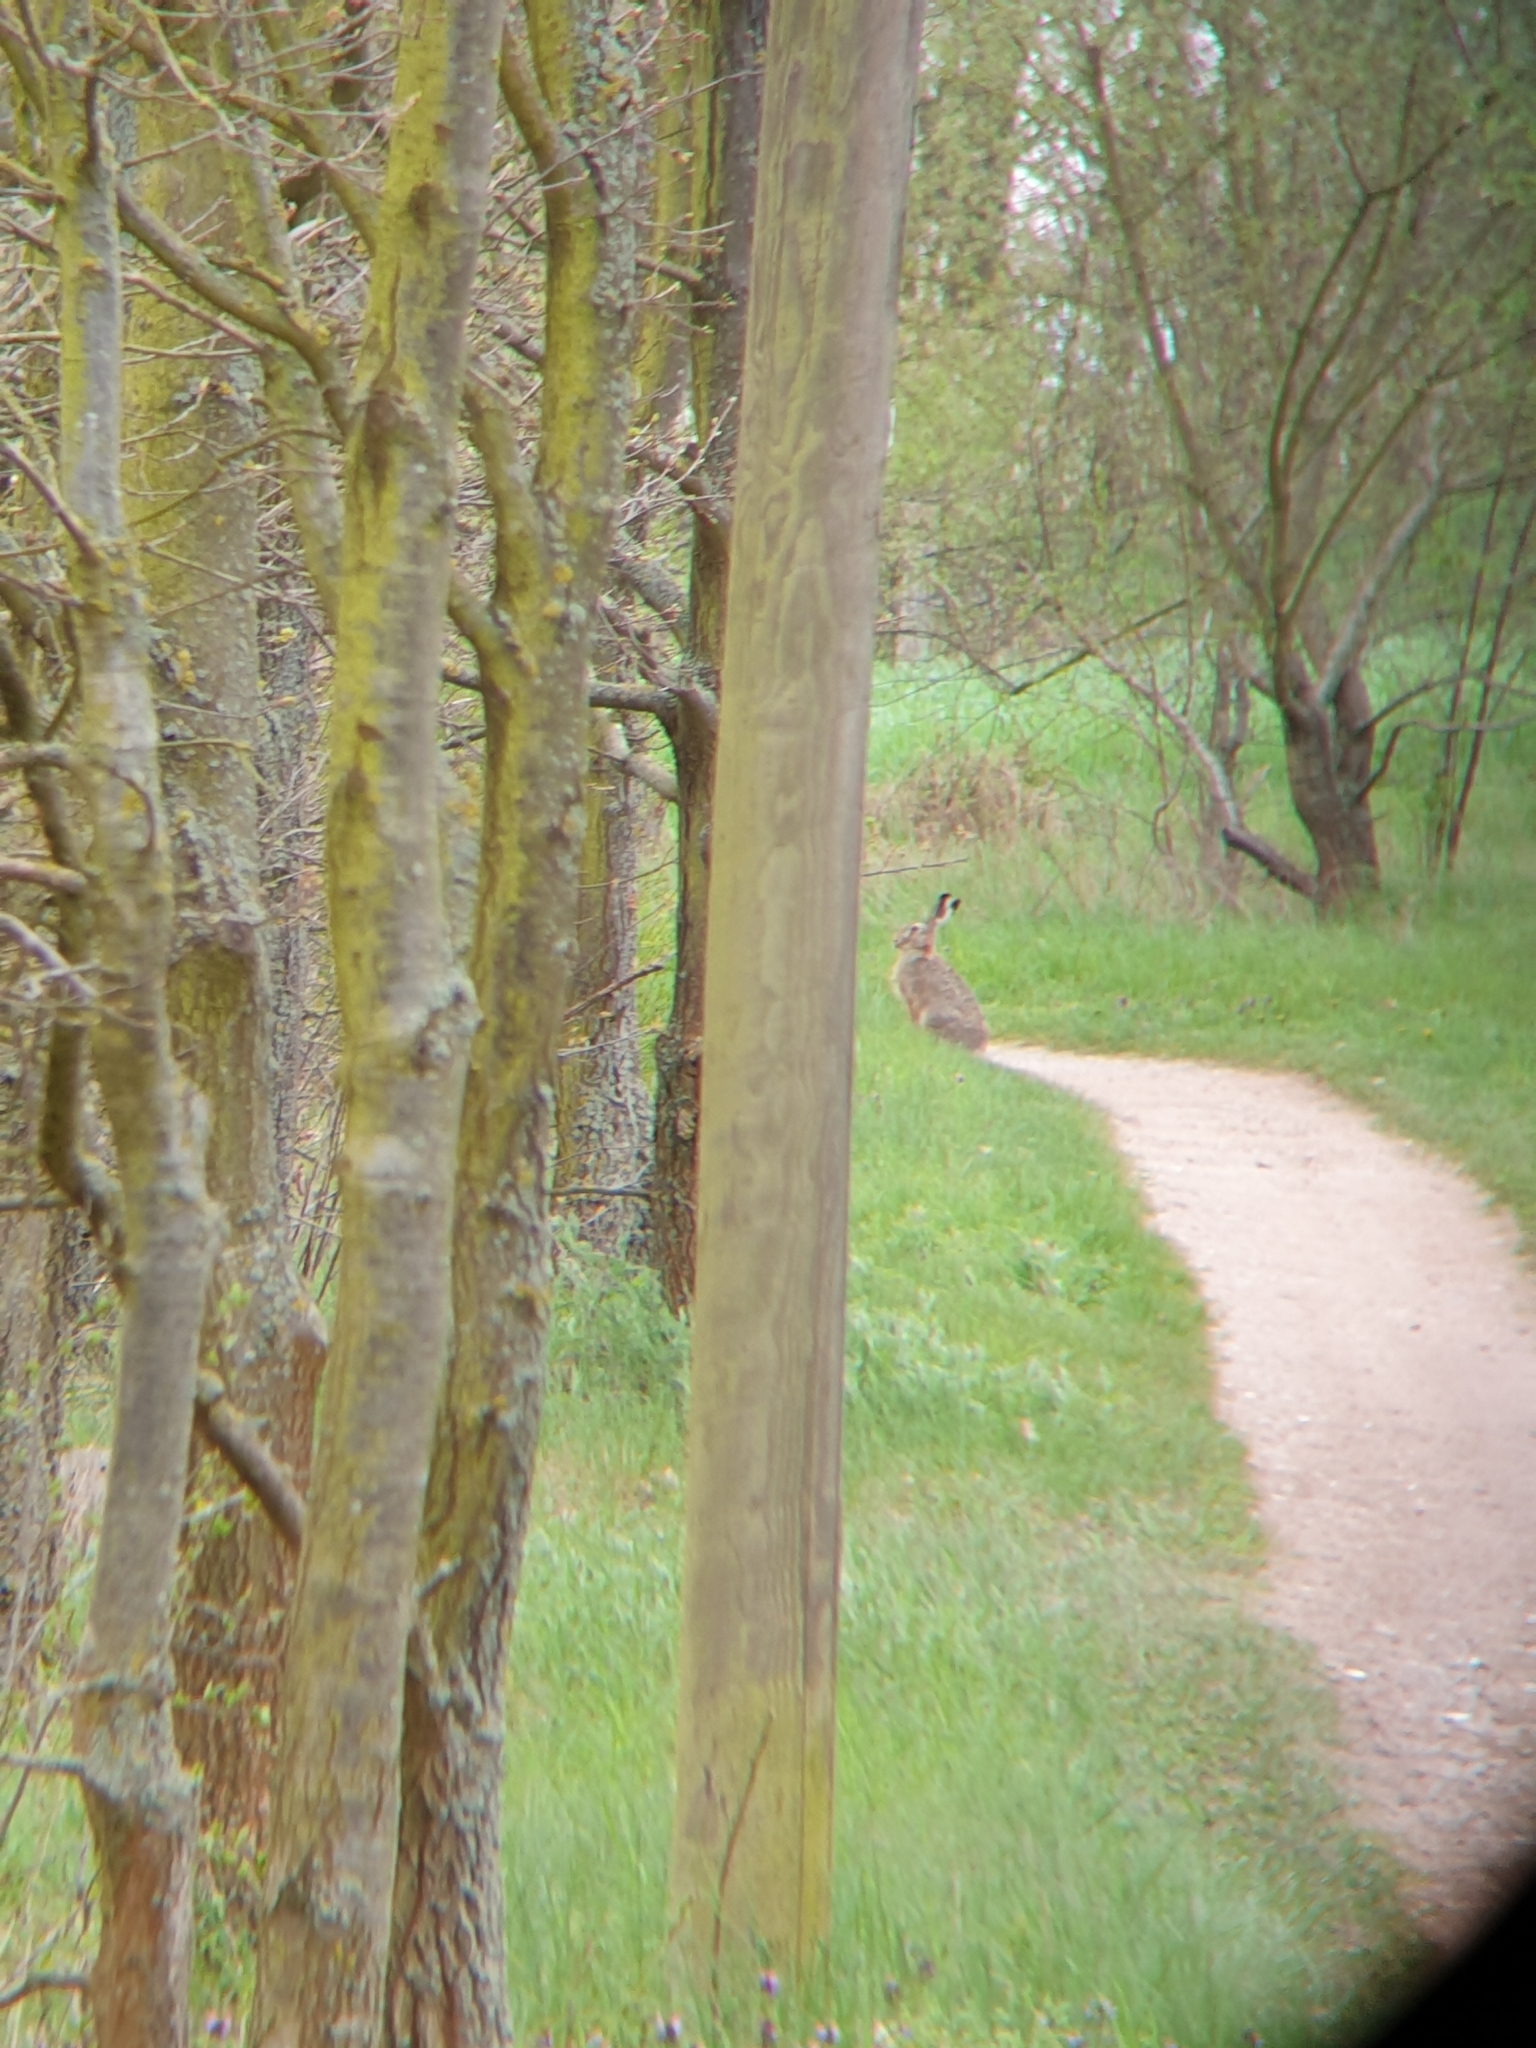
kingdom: Animalia
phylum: Chordata
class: Mammalia
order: Lagomorpha
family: Leporidae
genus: Lepus
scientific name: Lepus europaeus
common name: European hare
